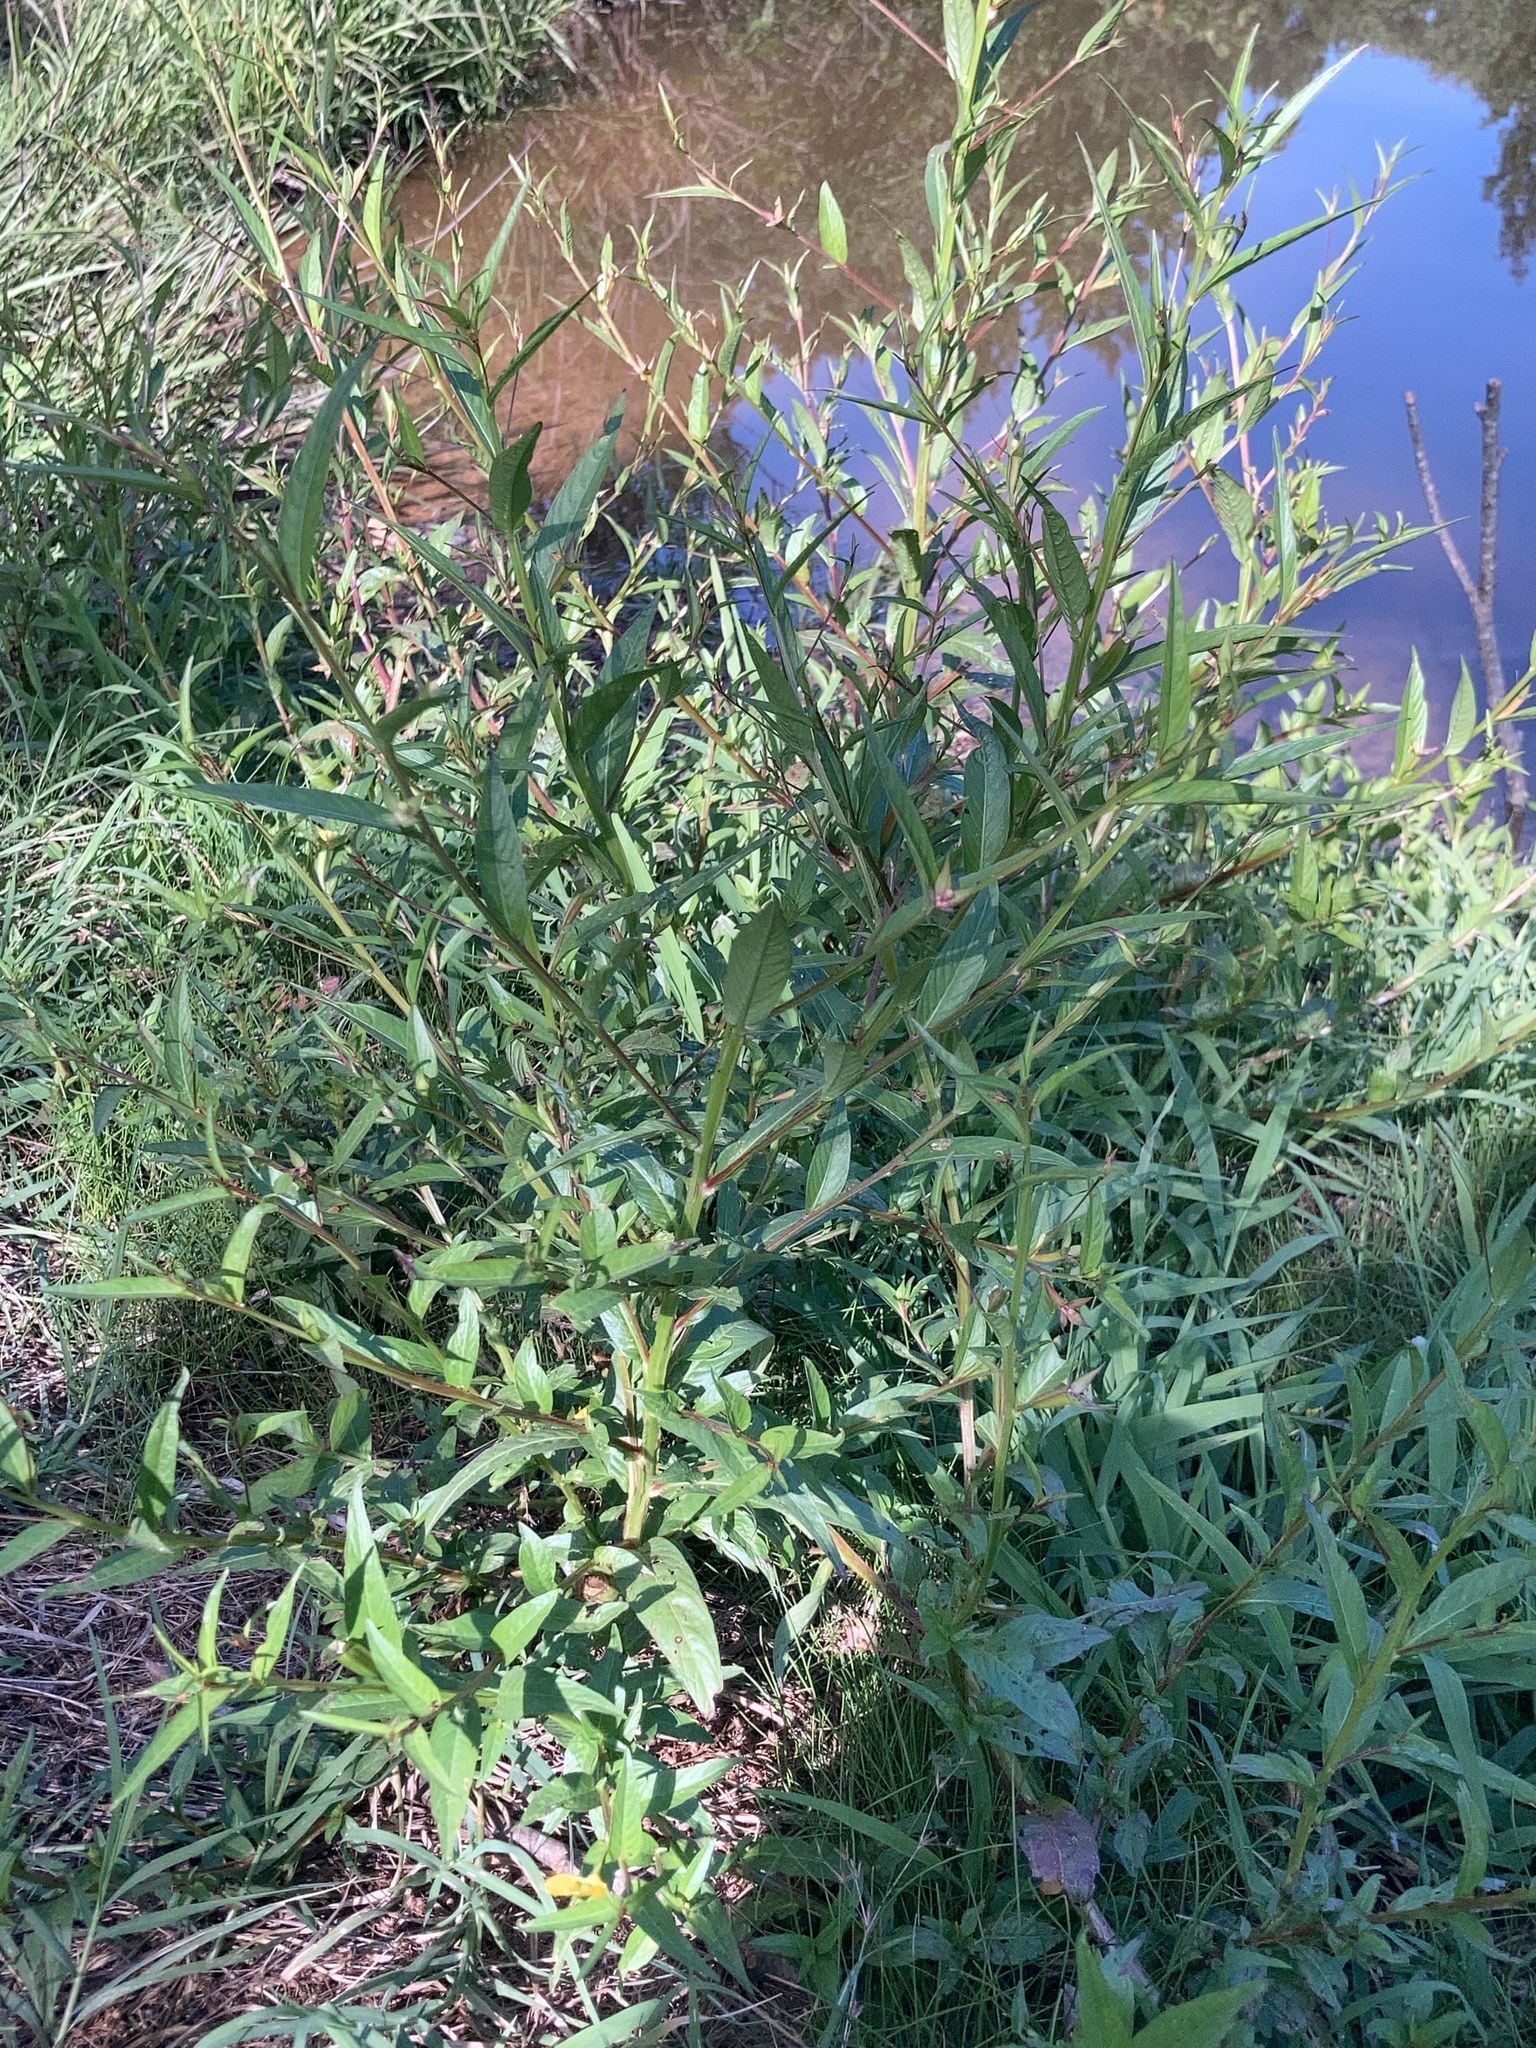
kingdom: Plantae
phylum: Tracheophyta
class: Magnoliopsida
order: Myrtales
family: Onagraceae
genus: Ludwigia
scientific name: Ludwigia decurrens
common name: Winged water-primrose
